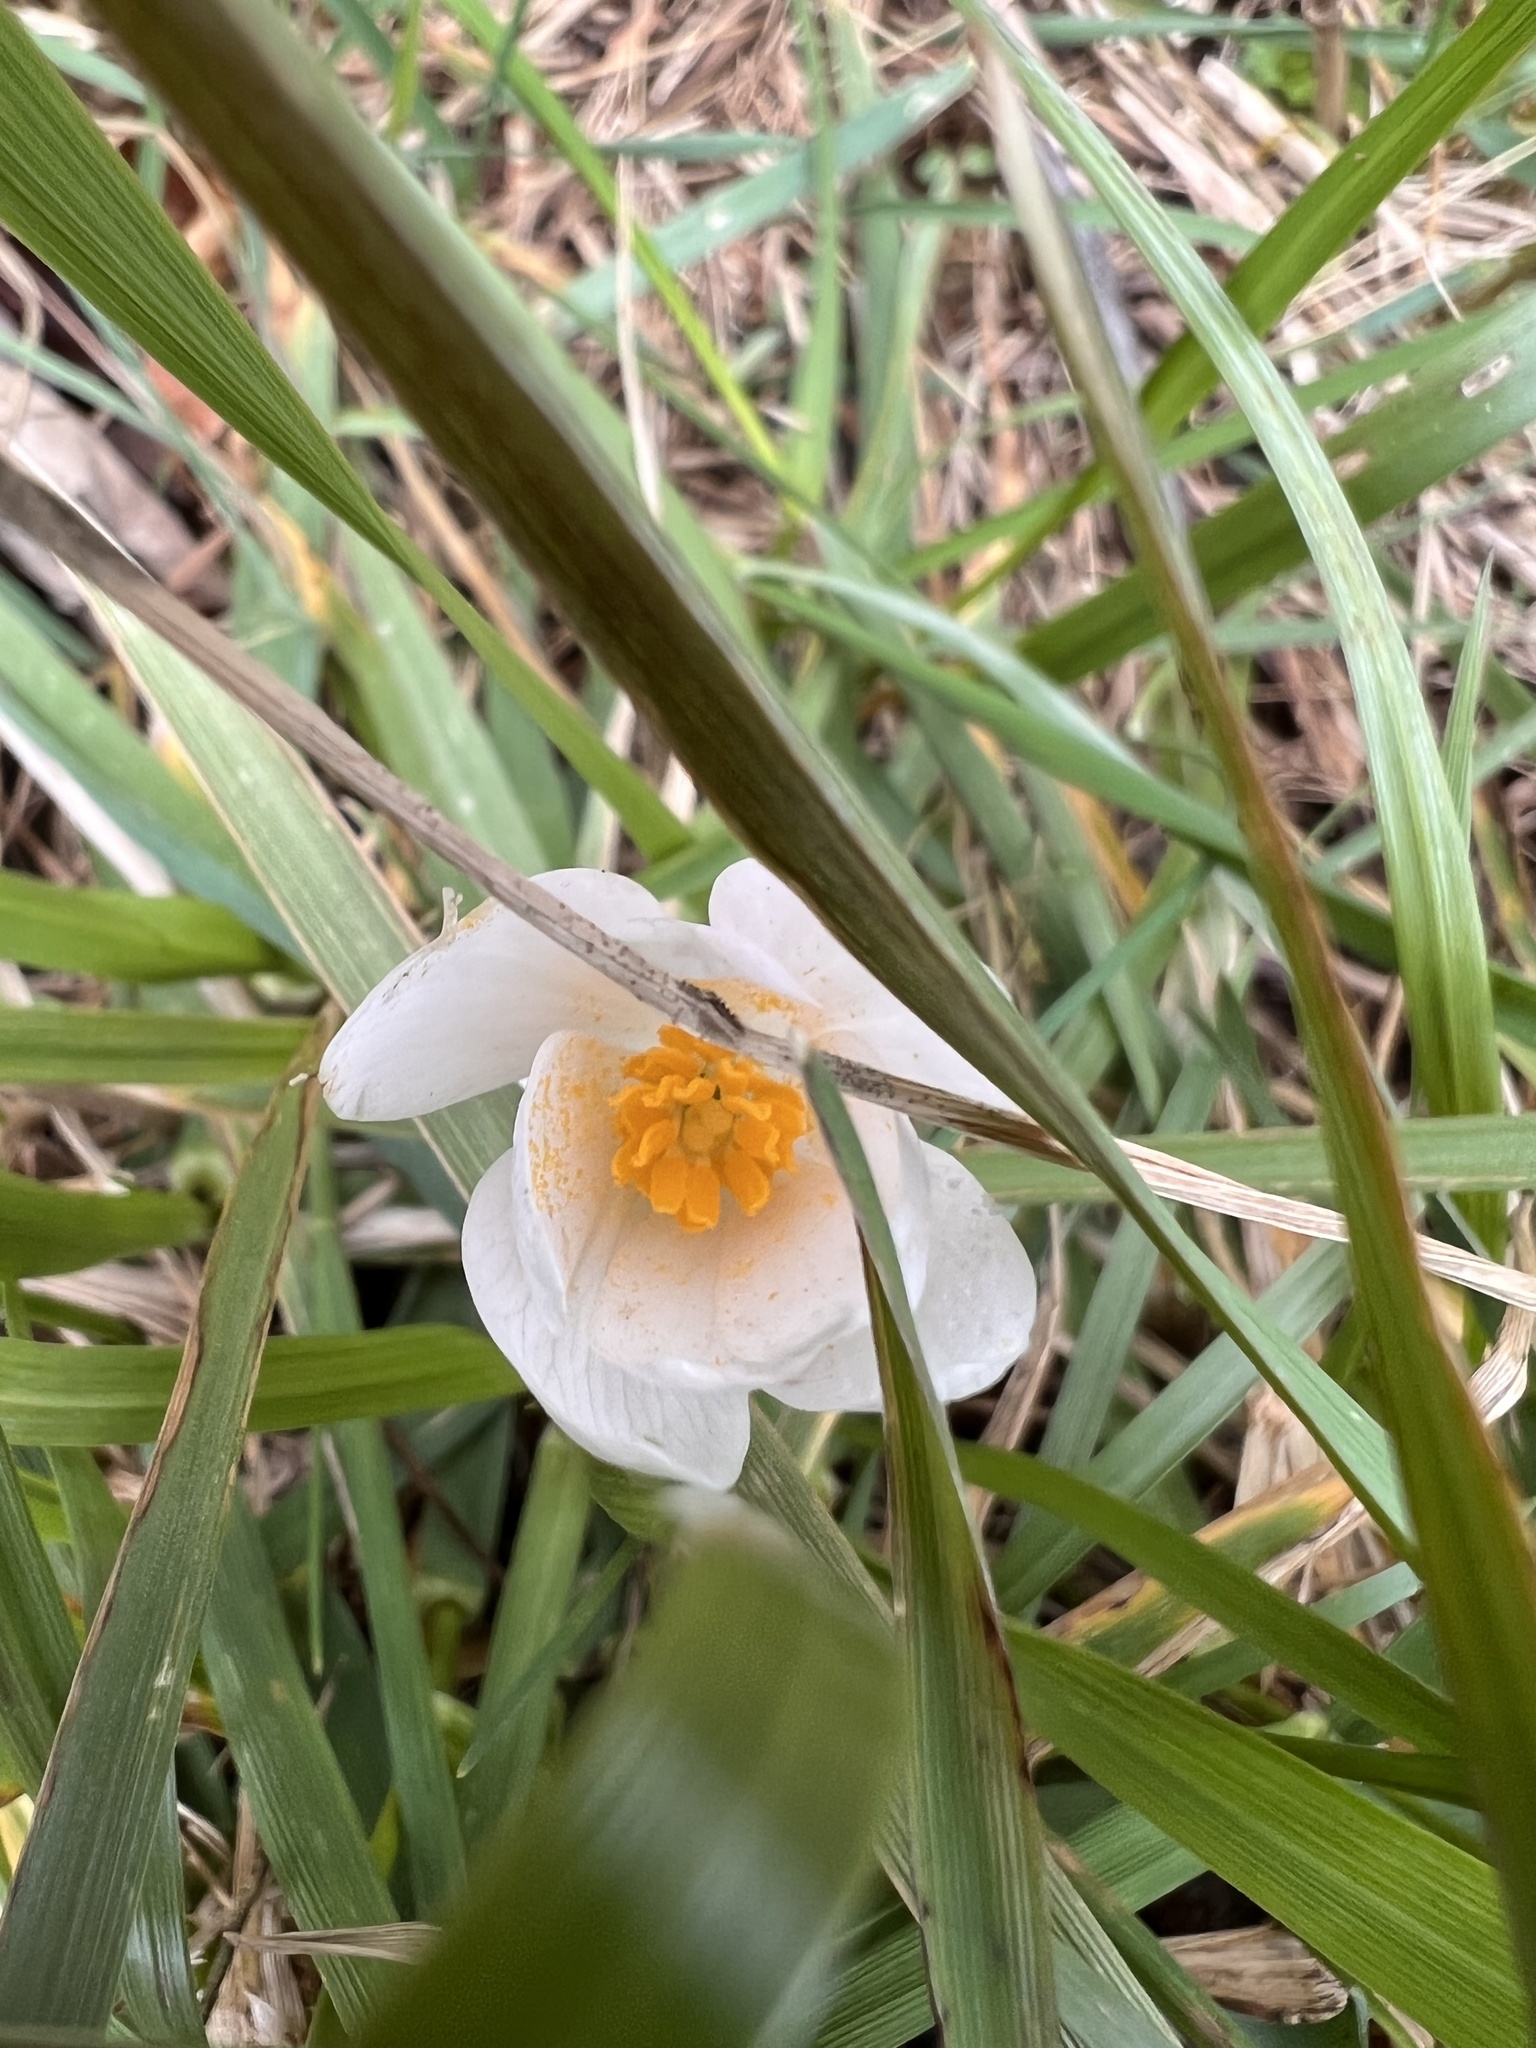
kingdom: Plantae
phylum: Tracheophyta
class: Magnoliopsida
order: Ranunculales
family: Papaveraceae
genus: Sanguinaria
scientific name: Sanguinaria canadensis
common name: Bloodroot
